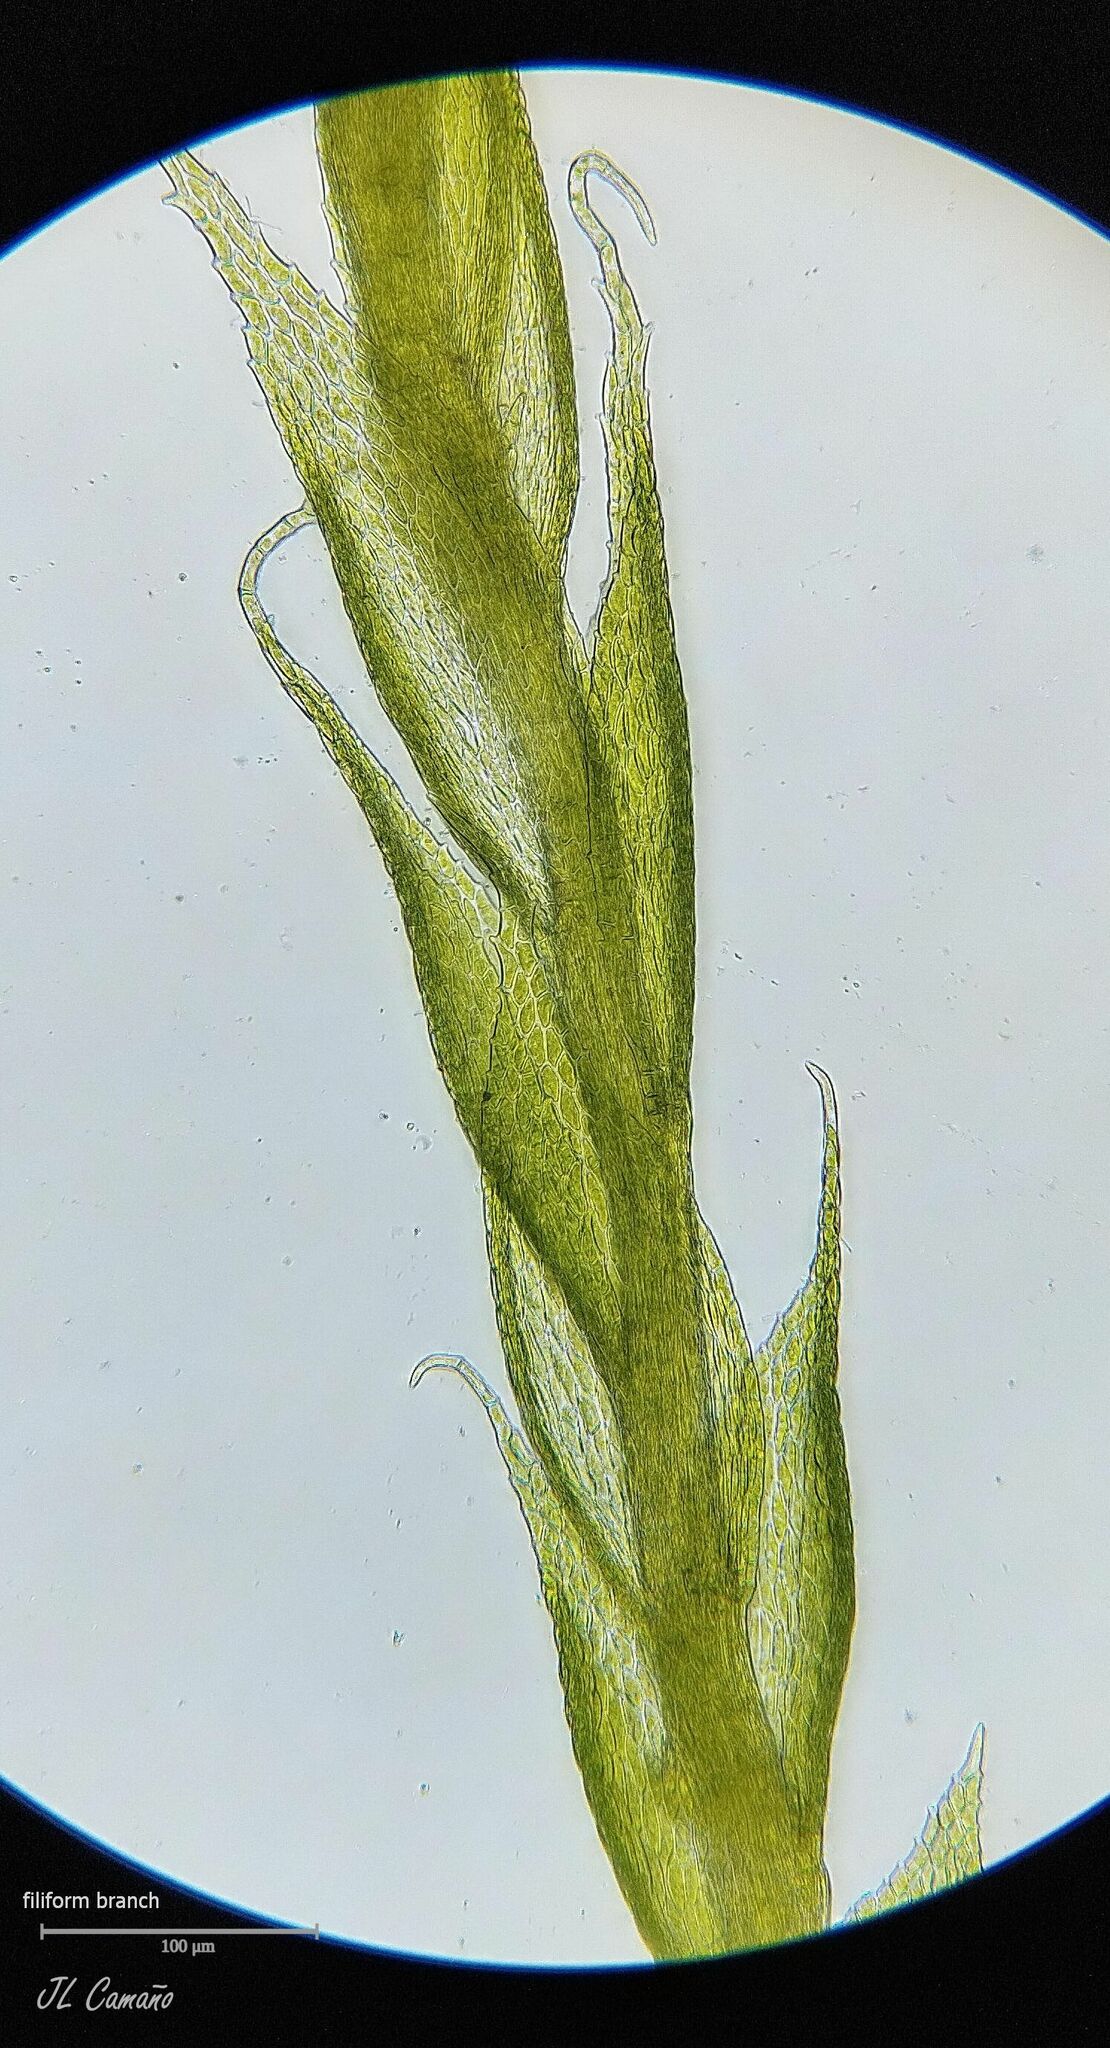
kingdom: Plantae
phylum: Bryophyta
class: Bryopsida
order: Hypnales
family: Neckeraceae
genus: Neckera
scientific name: Neckera pumila
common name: Dwarf neckera
